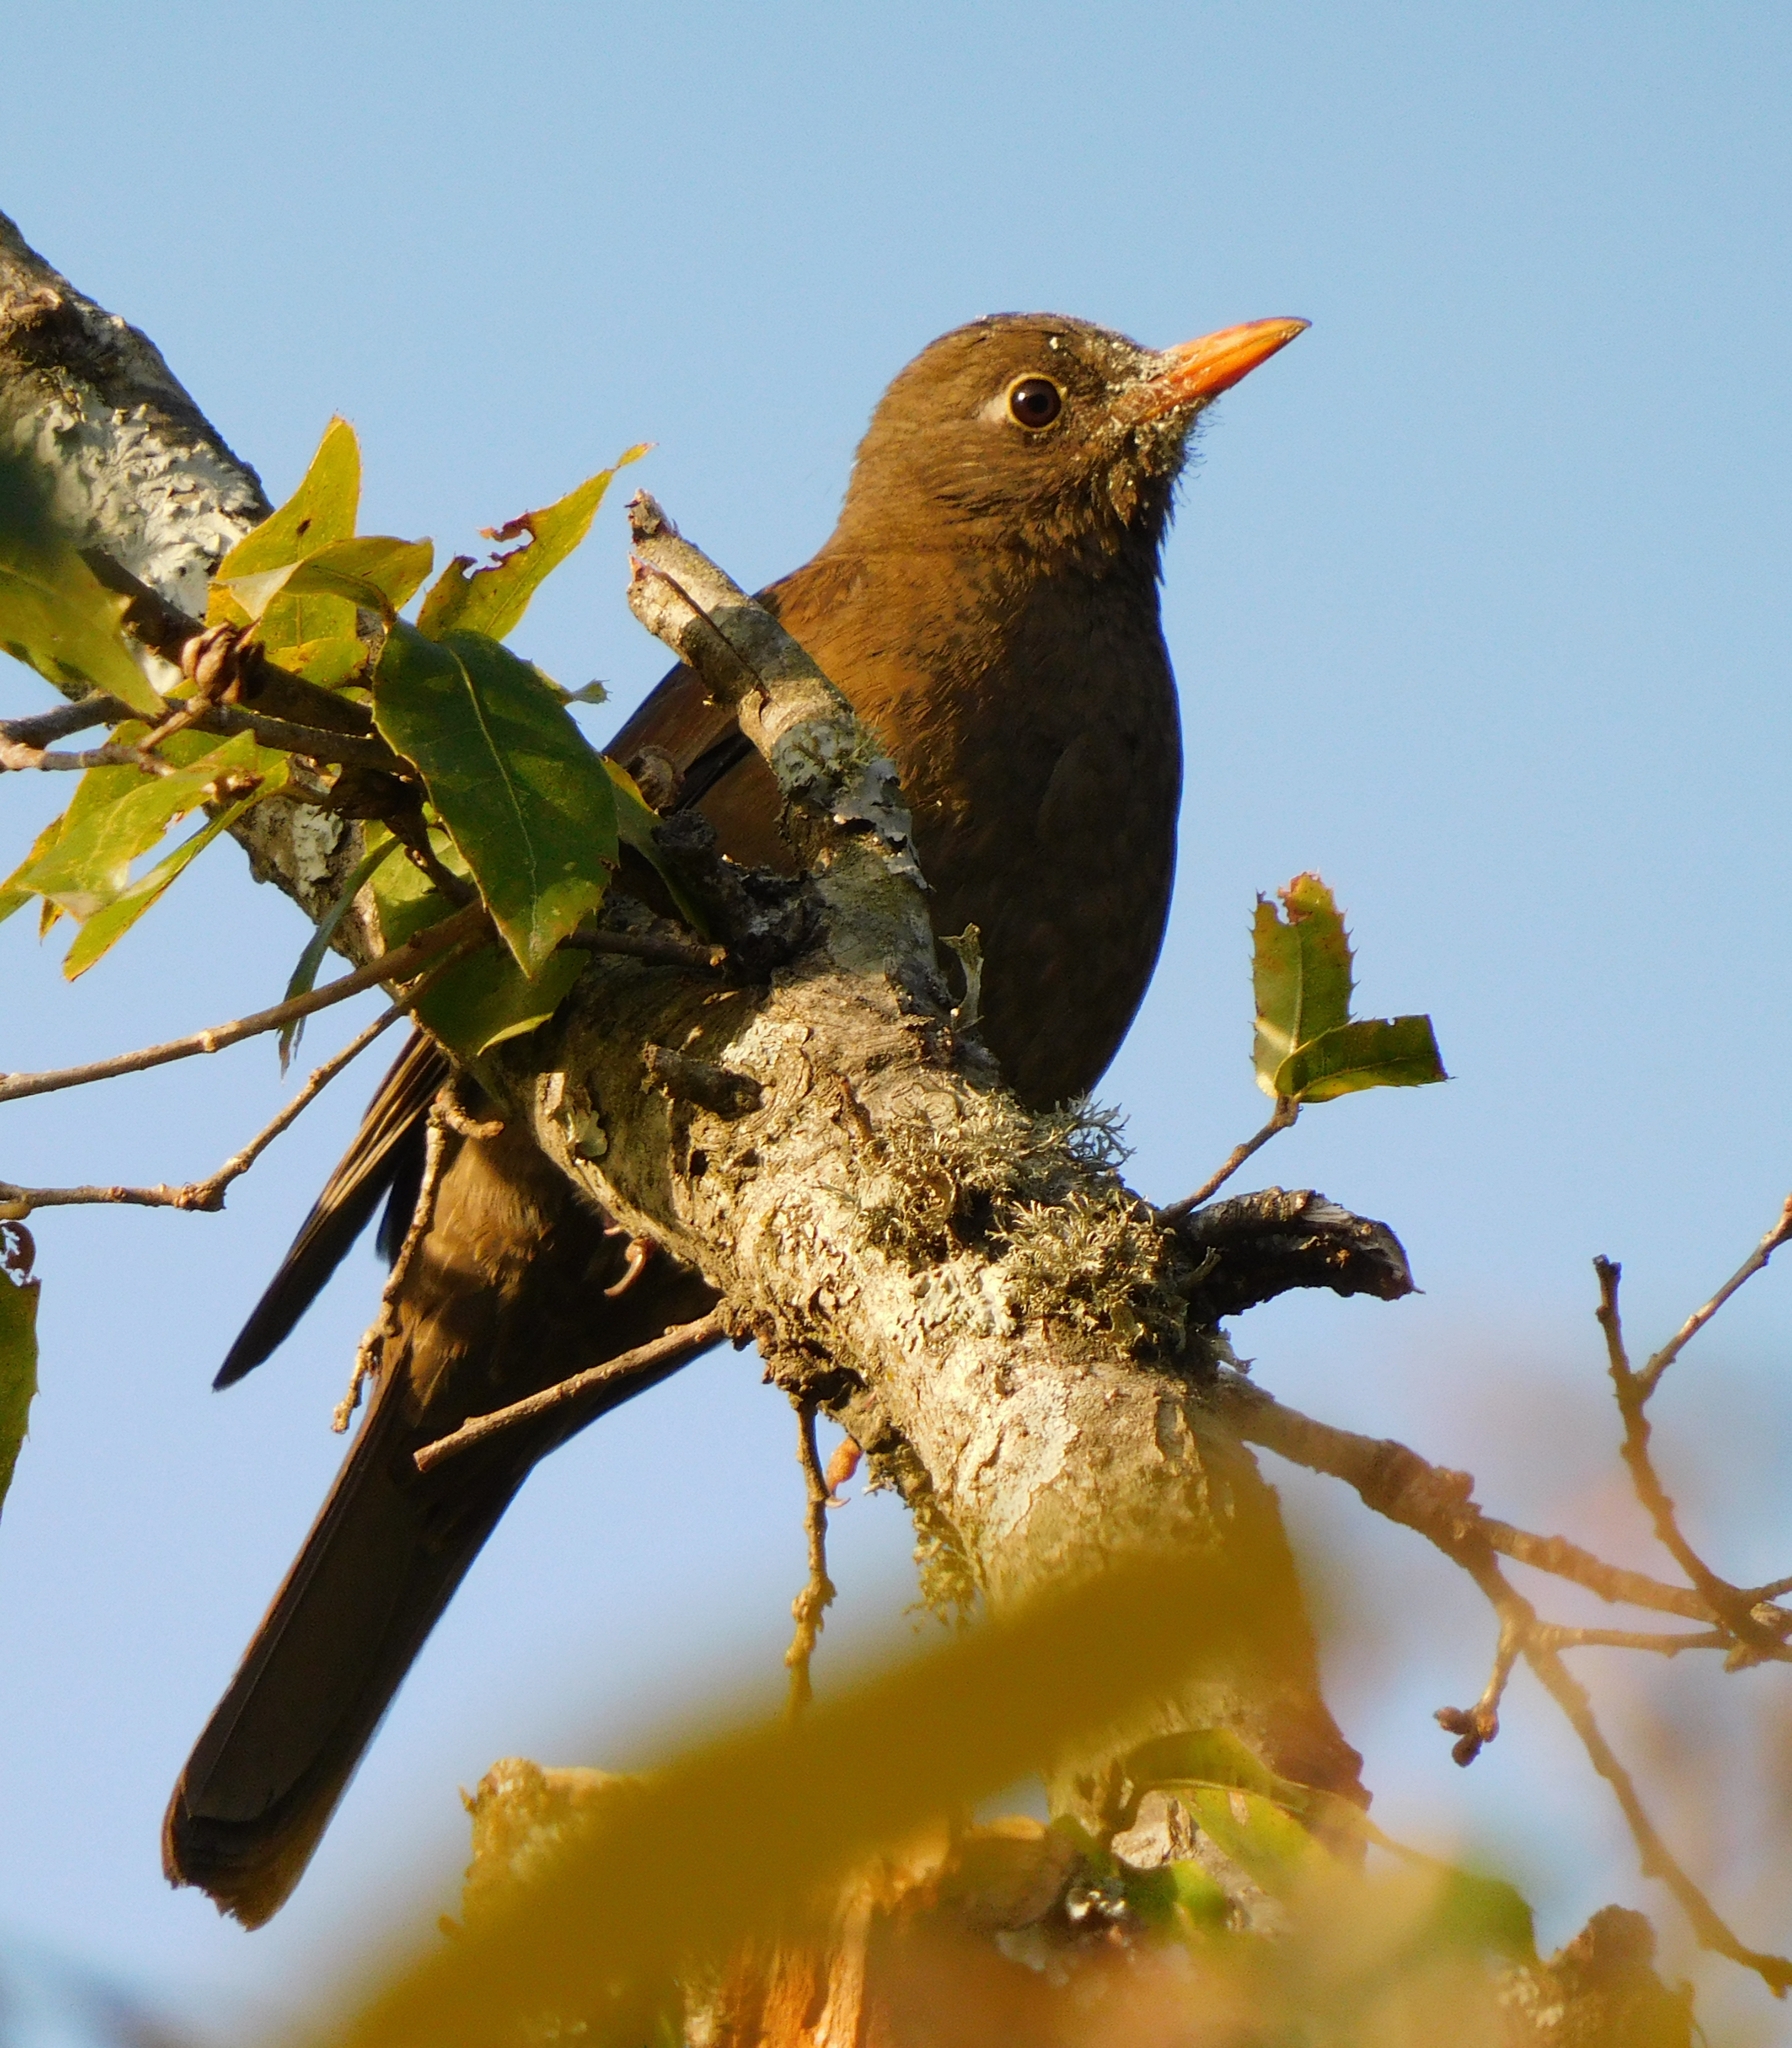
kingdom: Animalia
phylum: Chordata
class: Aves
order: Passeriformes
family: Turdidae
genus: Turdus
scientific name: Turdus boulboul
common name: Grey-winged blackbird
